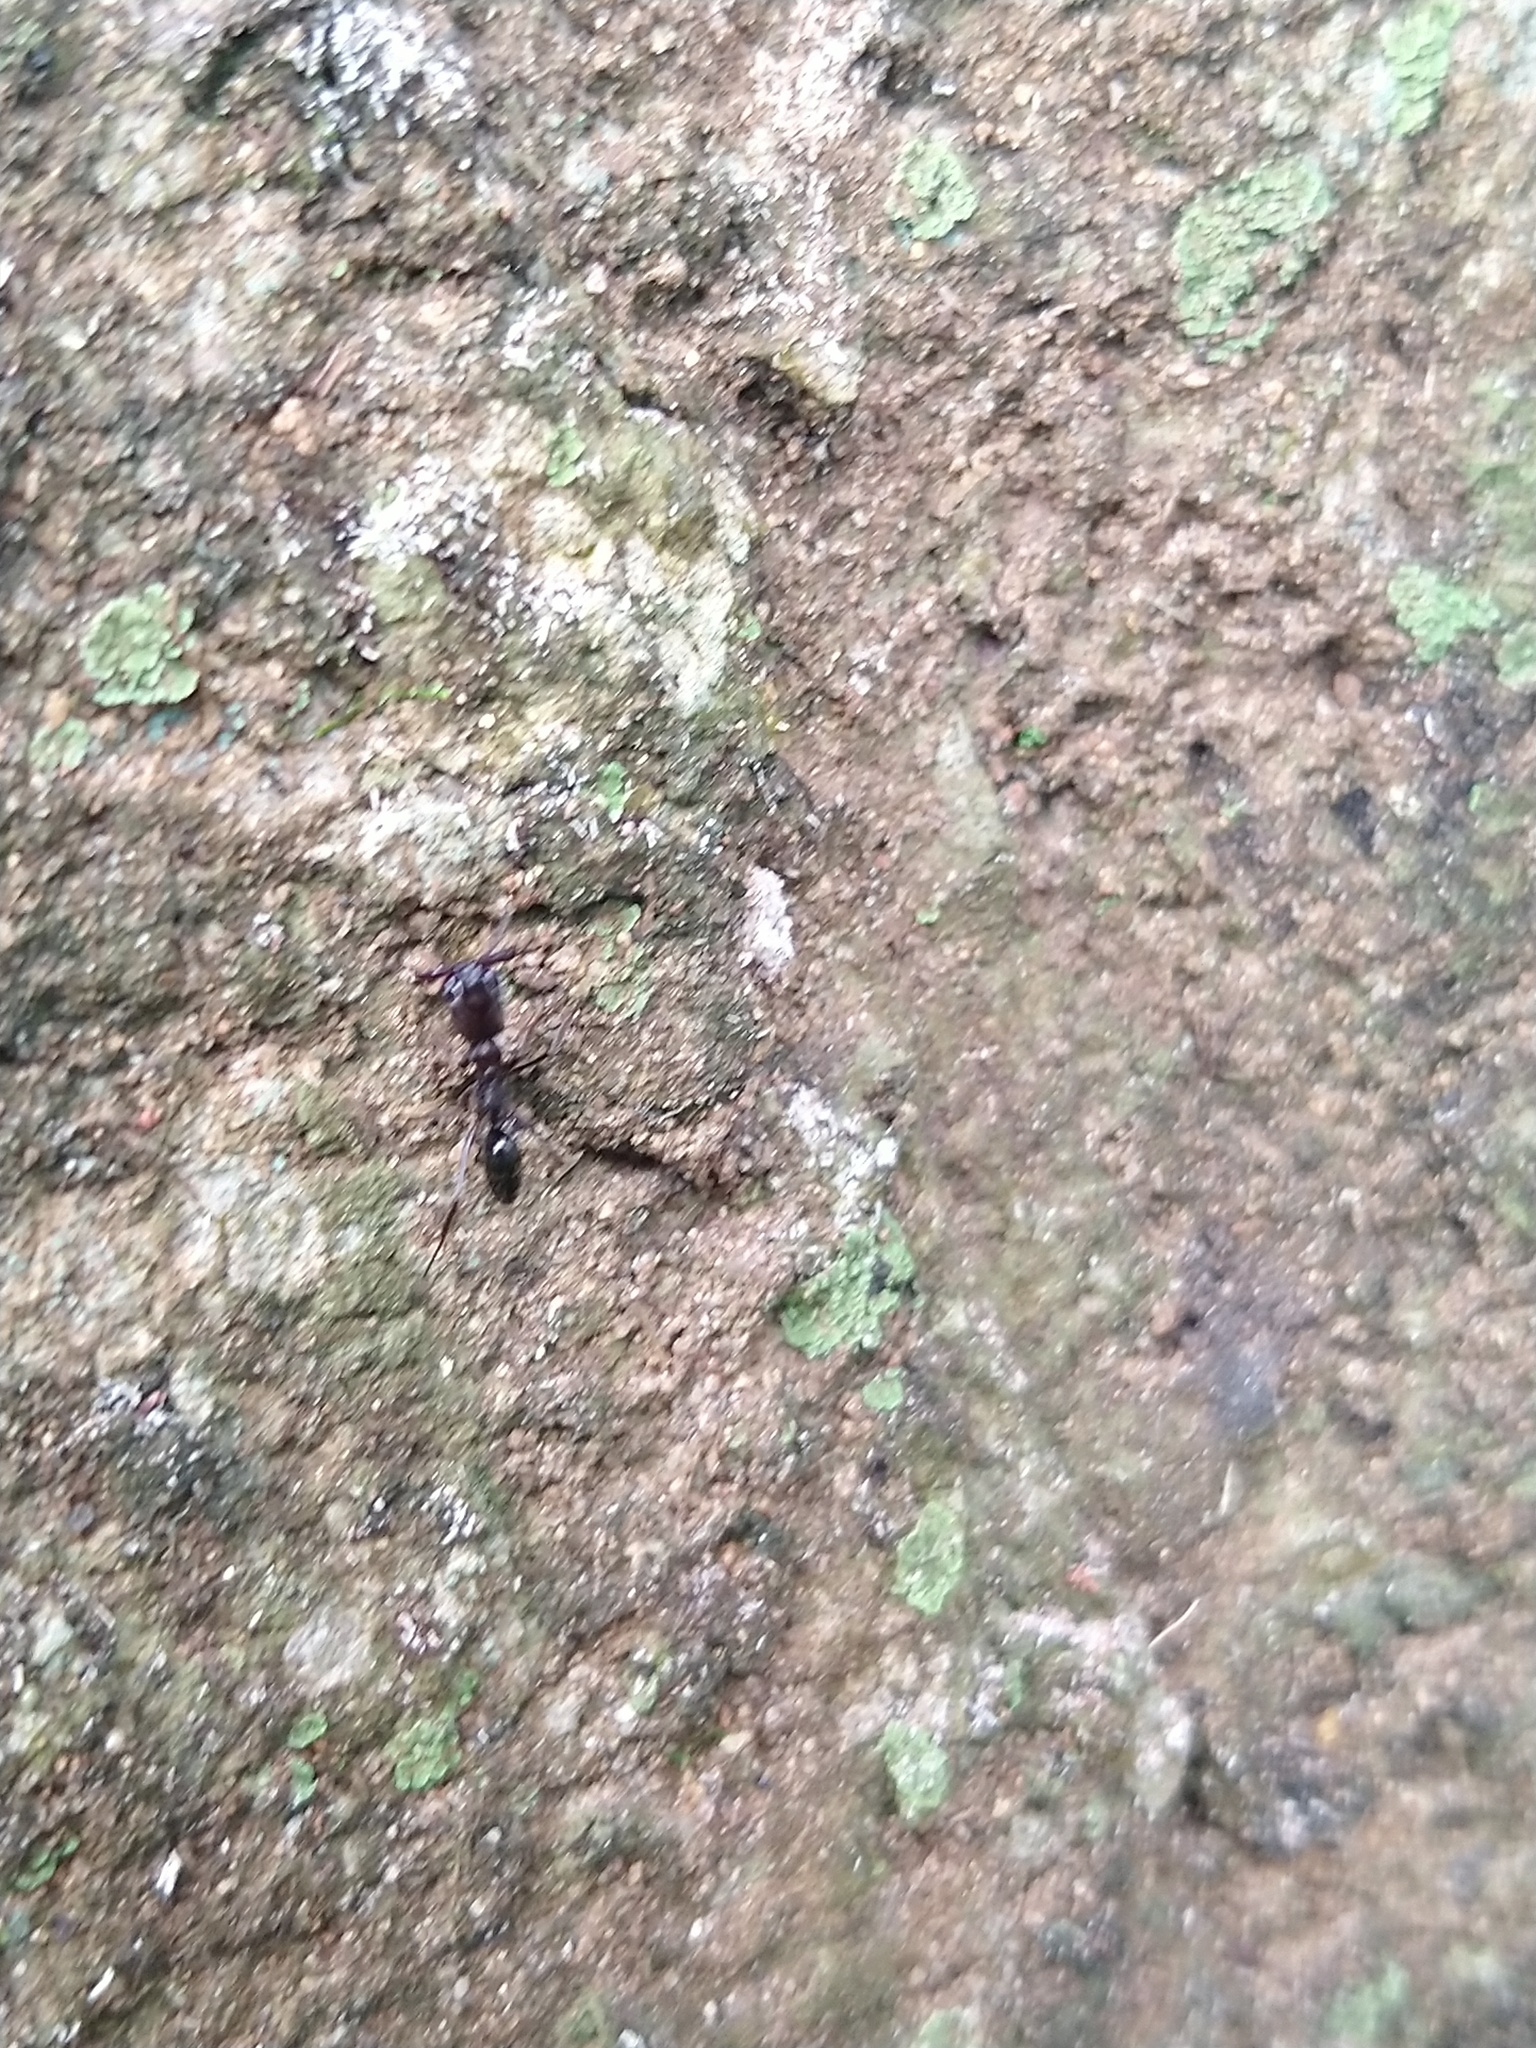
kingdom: Animalia
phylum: Arthropoda
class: Insecta
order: Hymenoptera
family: Formicidae
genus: Odontomachus
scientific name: Odontomachus simillimus
